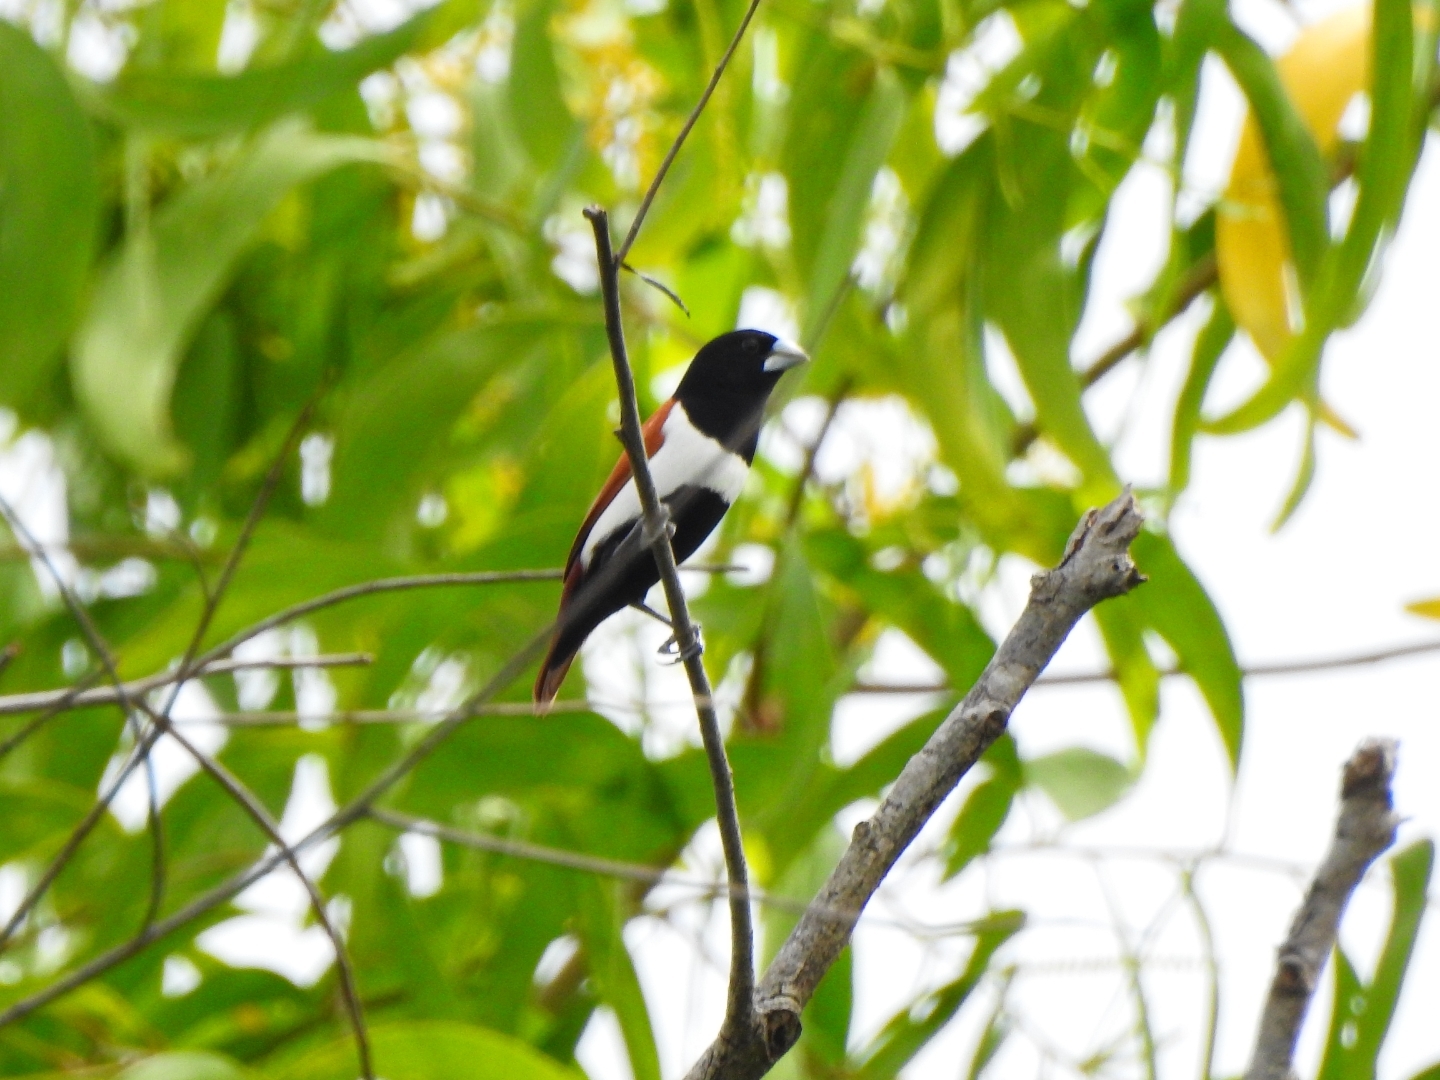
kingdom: Animalia
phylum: Chordata
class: Aves
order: Passeriformes
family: Estrildidae
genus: Lonchura
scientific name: Lonchura malacca
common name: Tricolored munia
